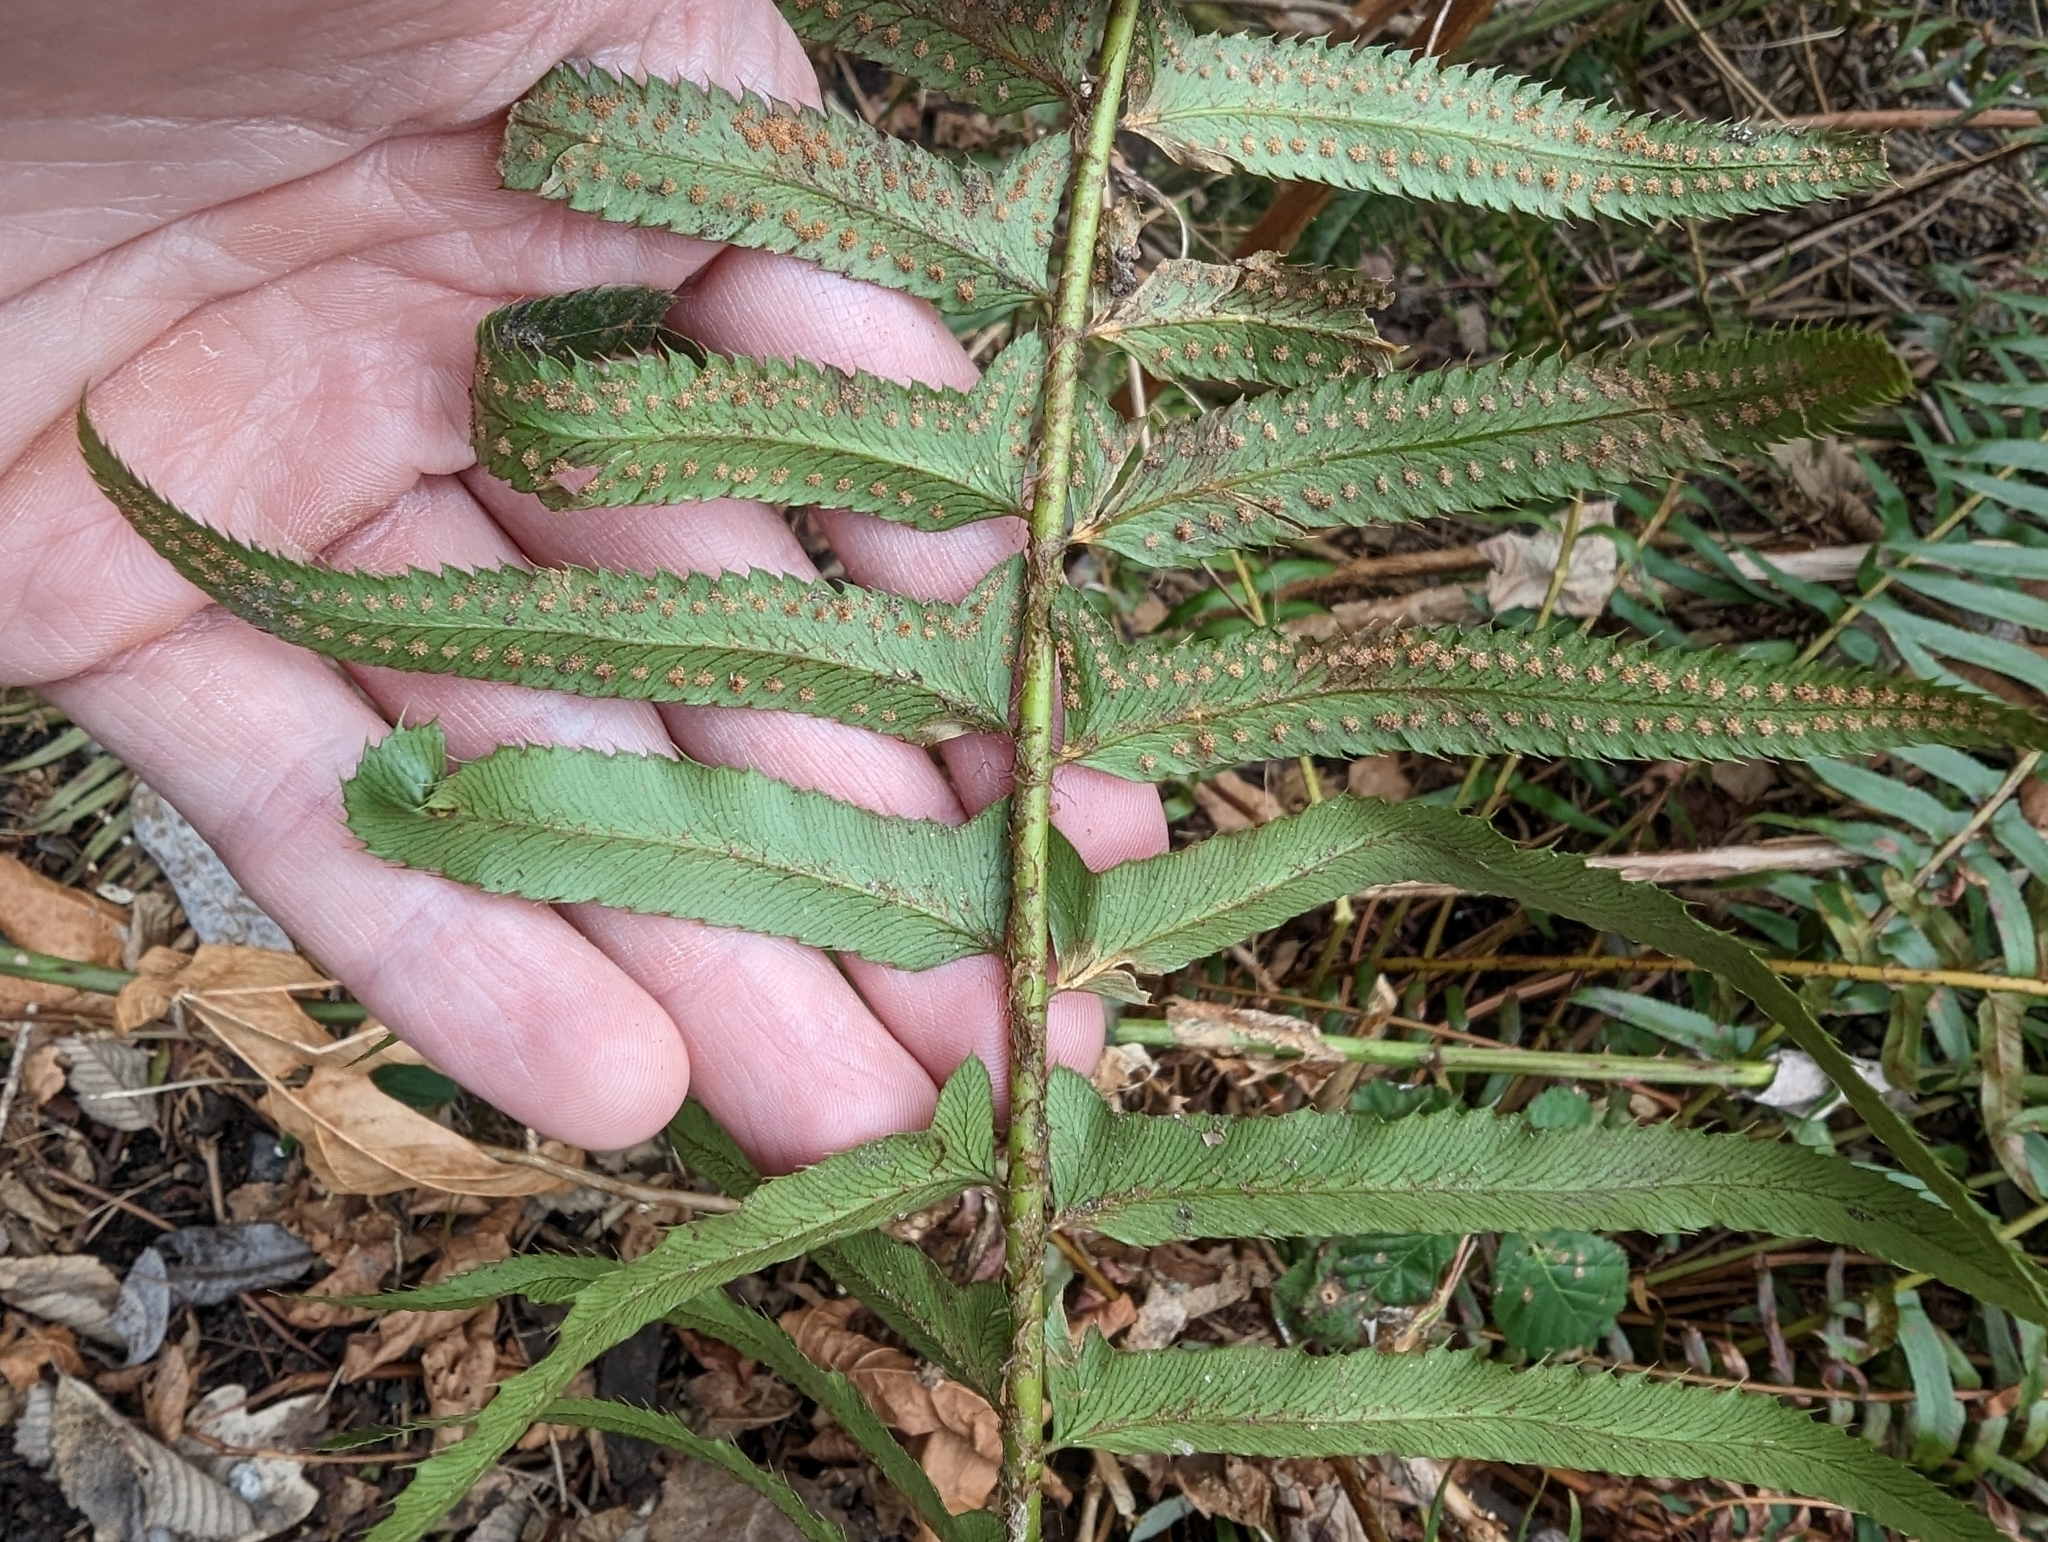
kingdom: Plantae
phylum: Tracheophyta
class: Polypodiopsida
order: Polypodiales
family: Dryopteridaceae
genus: Polystichum
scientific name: Polystichum munitum
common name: Western sword-fern
